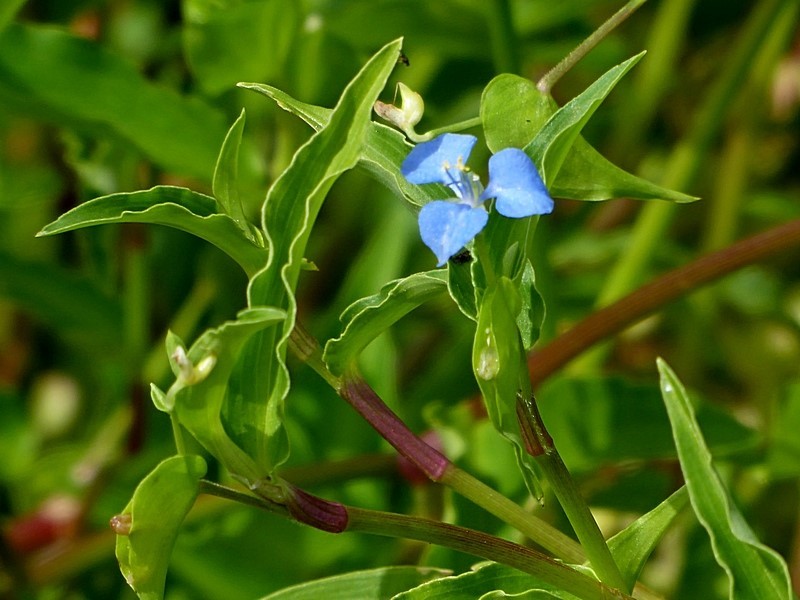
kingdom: Plantae
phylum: Tracheophyta
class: Liliopsida
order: Commelinales
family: Commelinaceae
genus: Commelina
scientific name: Commelina cyanea
